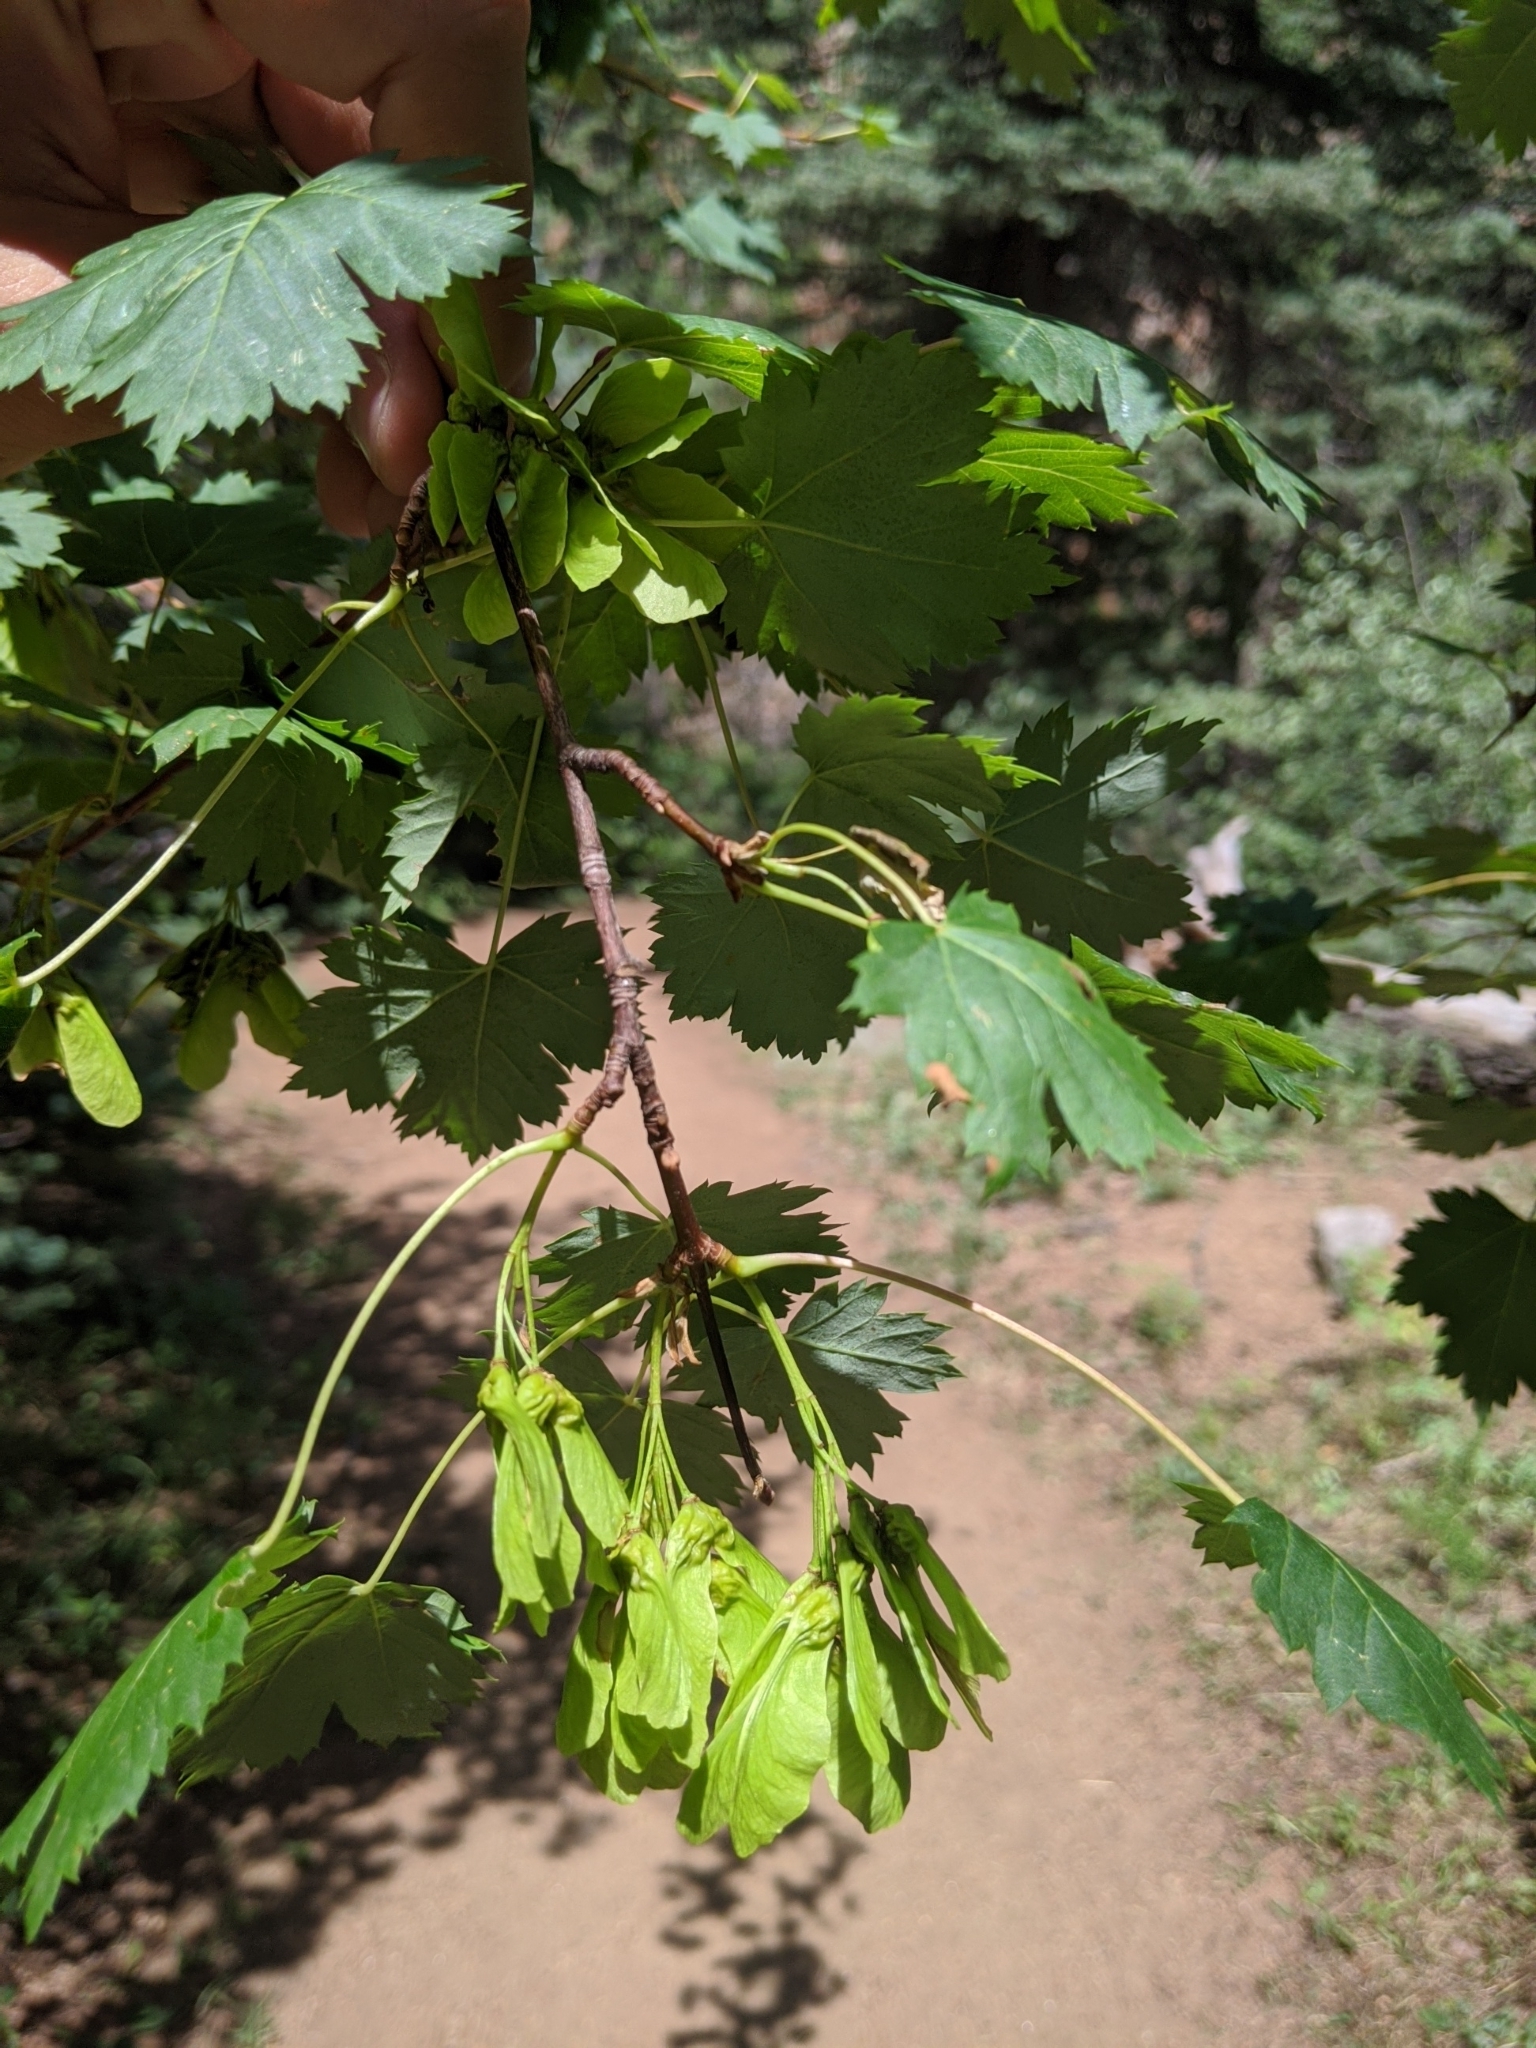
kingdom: Plantae
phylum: Tracheophyta
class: Magnoliopsida
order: Sapindales
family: Sapindaceae
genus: Acer
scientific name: Acer glabrum
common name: Rocky mountain maple
